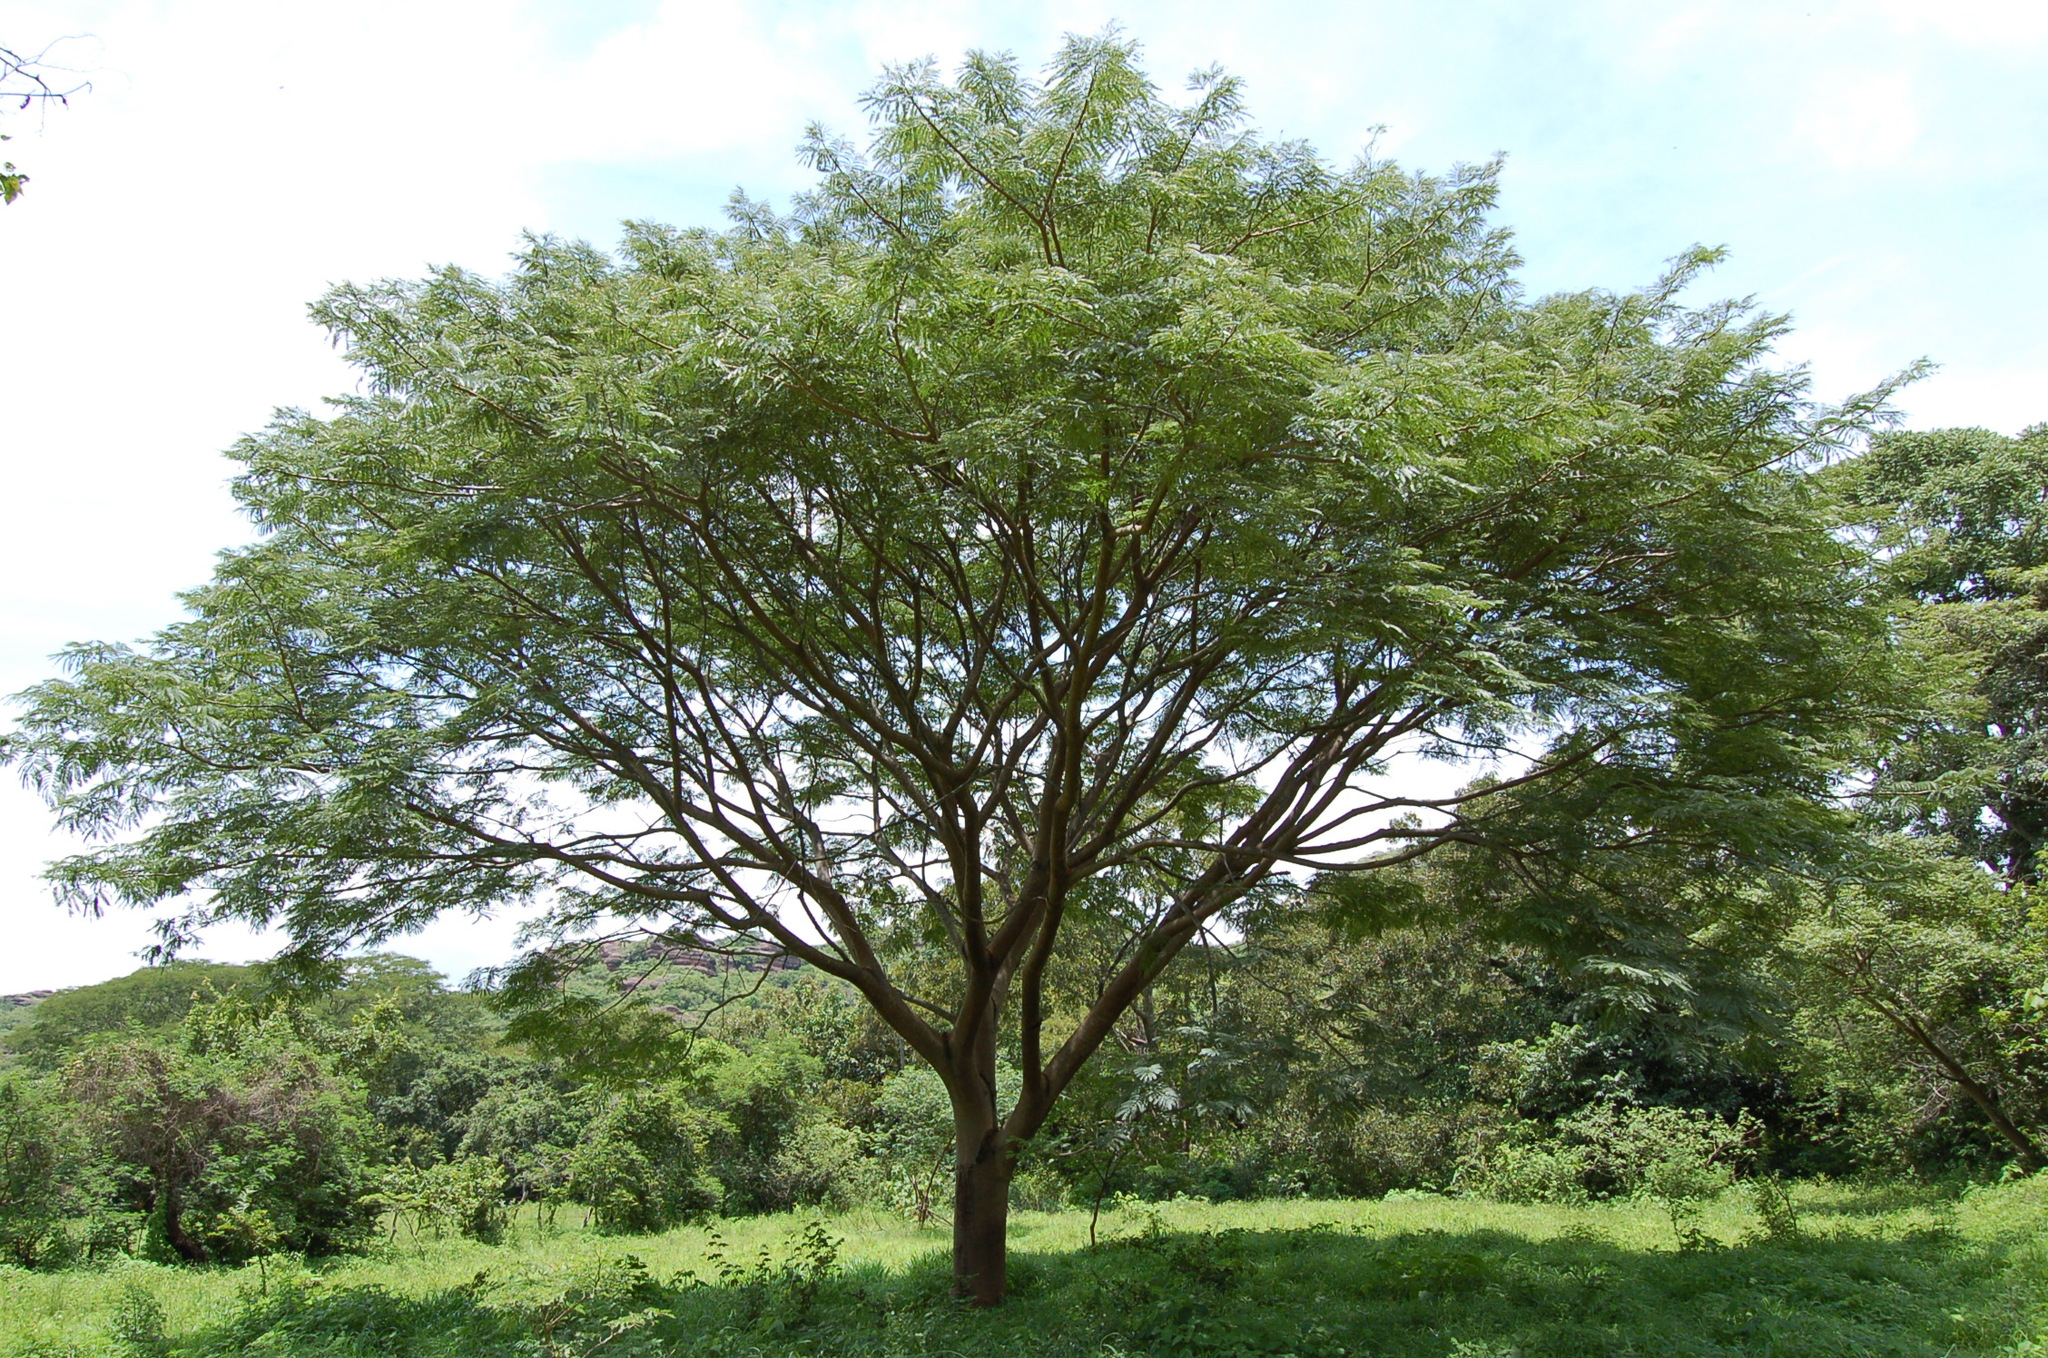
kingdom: Plantae
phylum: Tracheophyta
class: Magnoliopsida
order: Fabales
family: Fabaceae
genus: Andira
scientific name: Andira inermis
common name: Angelin
